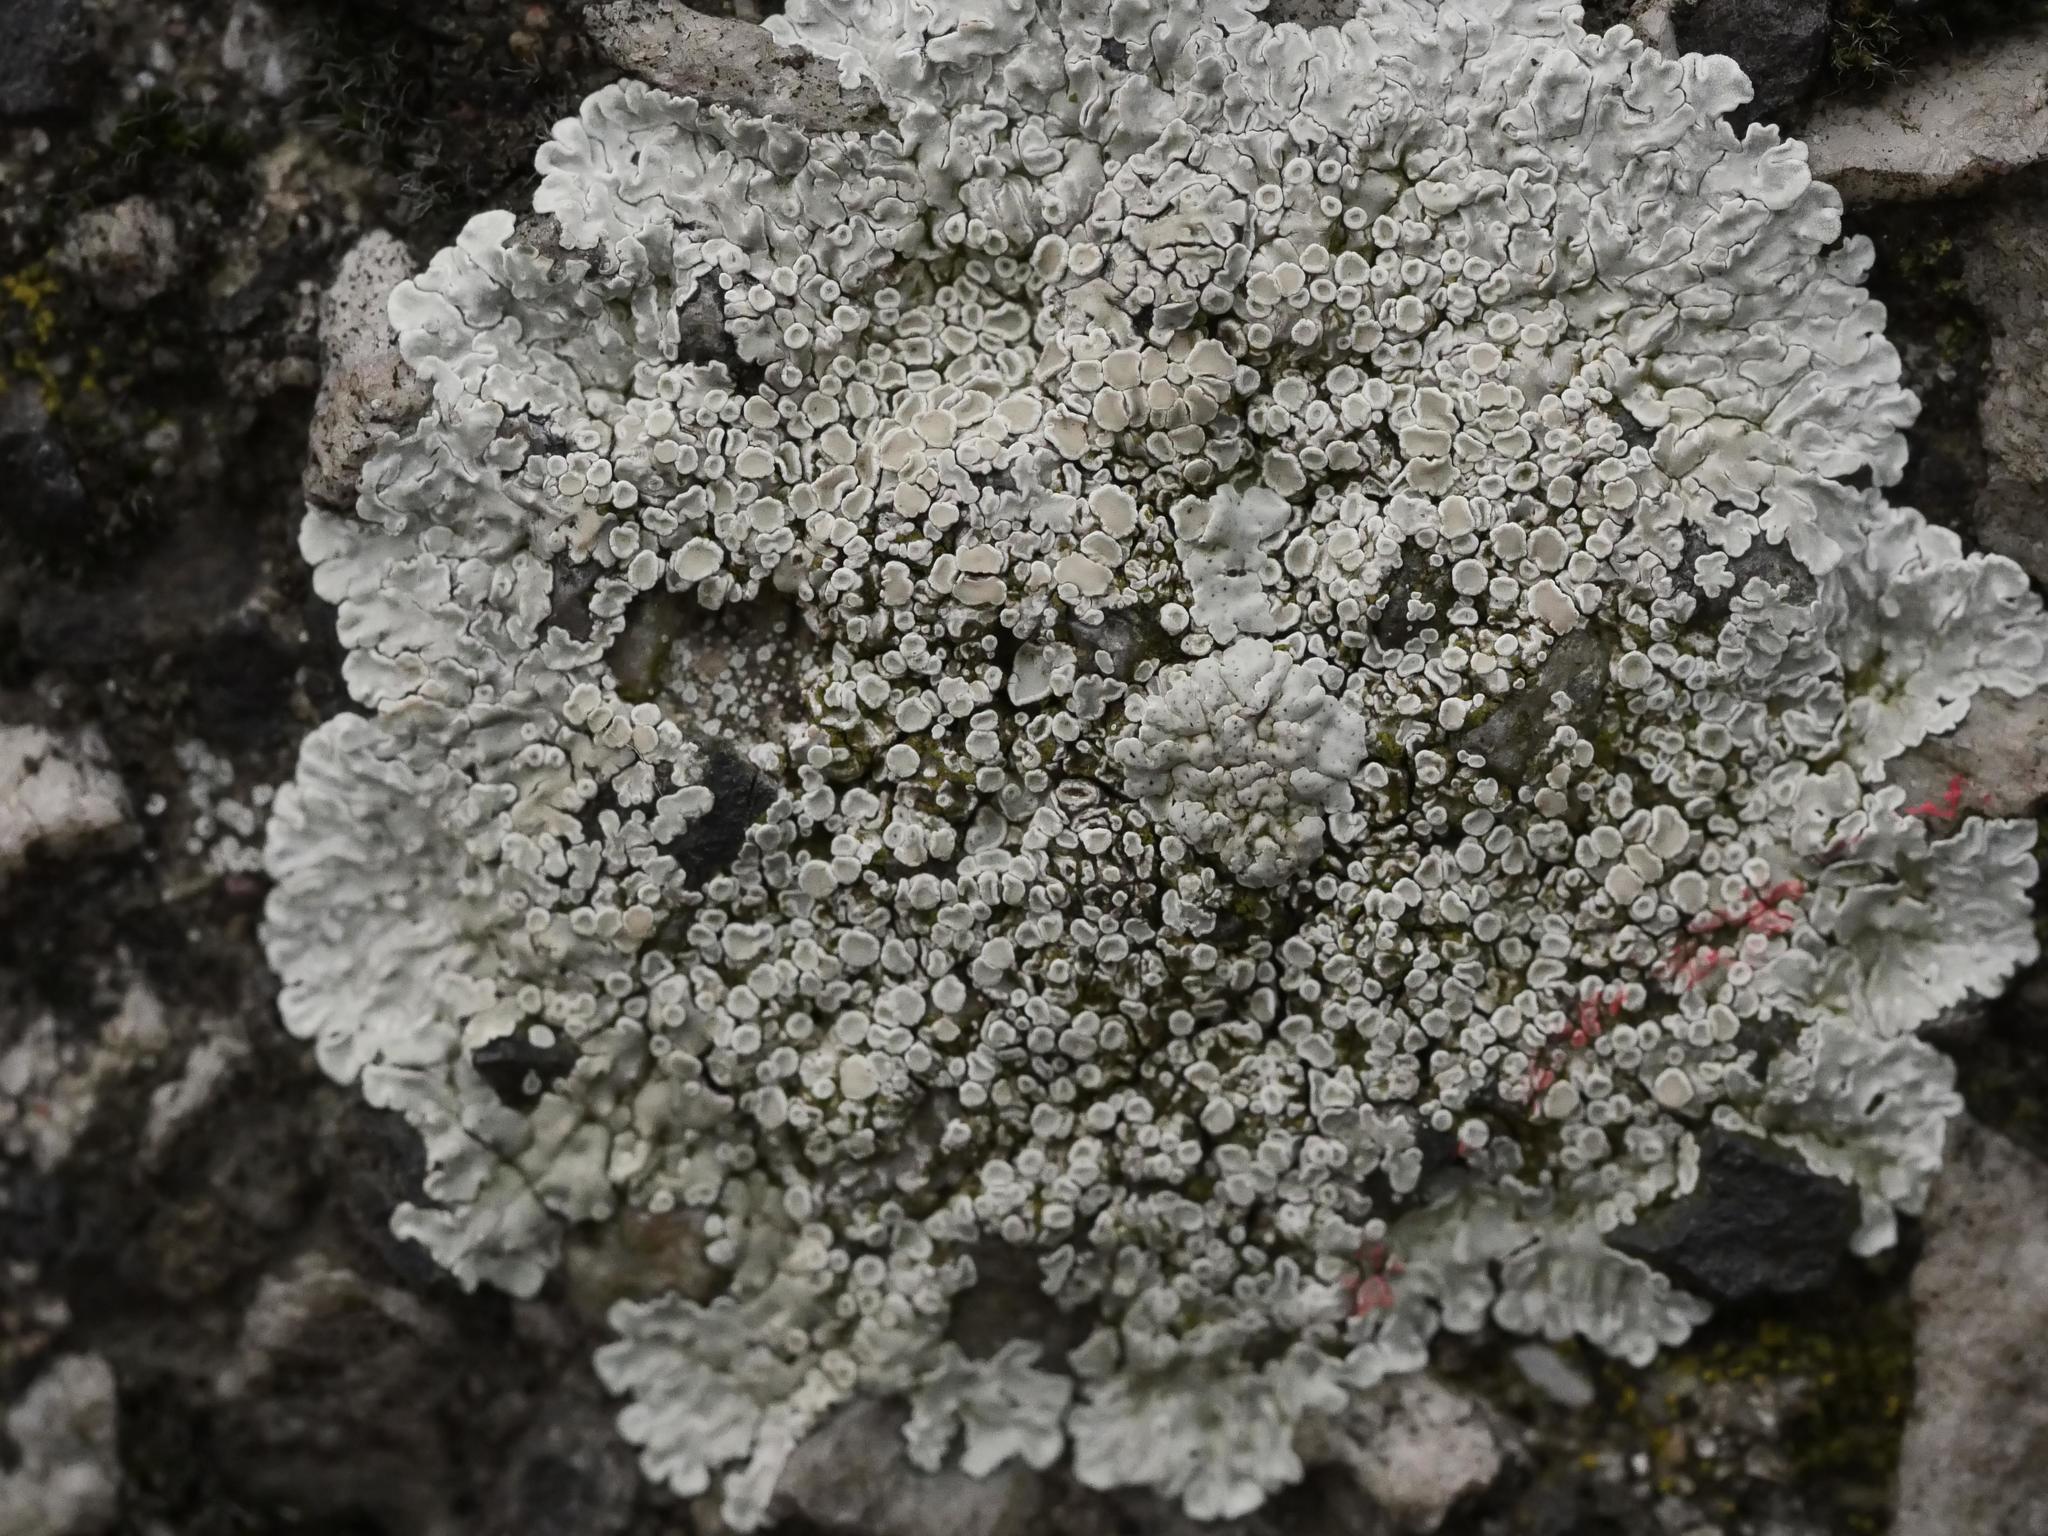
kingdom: Fungi
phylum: Ascomycota
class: Lecanoromycetes
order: Lecanorales
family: Lecanoraceae
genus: Protoparmeliopsis
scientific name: Protoparmeliopsis muralis
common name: Stonewall rim lichen
